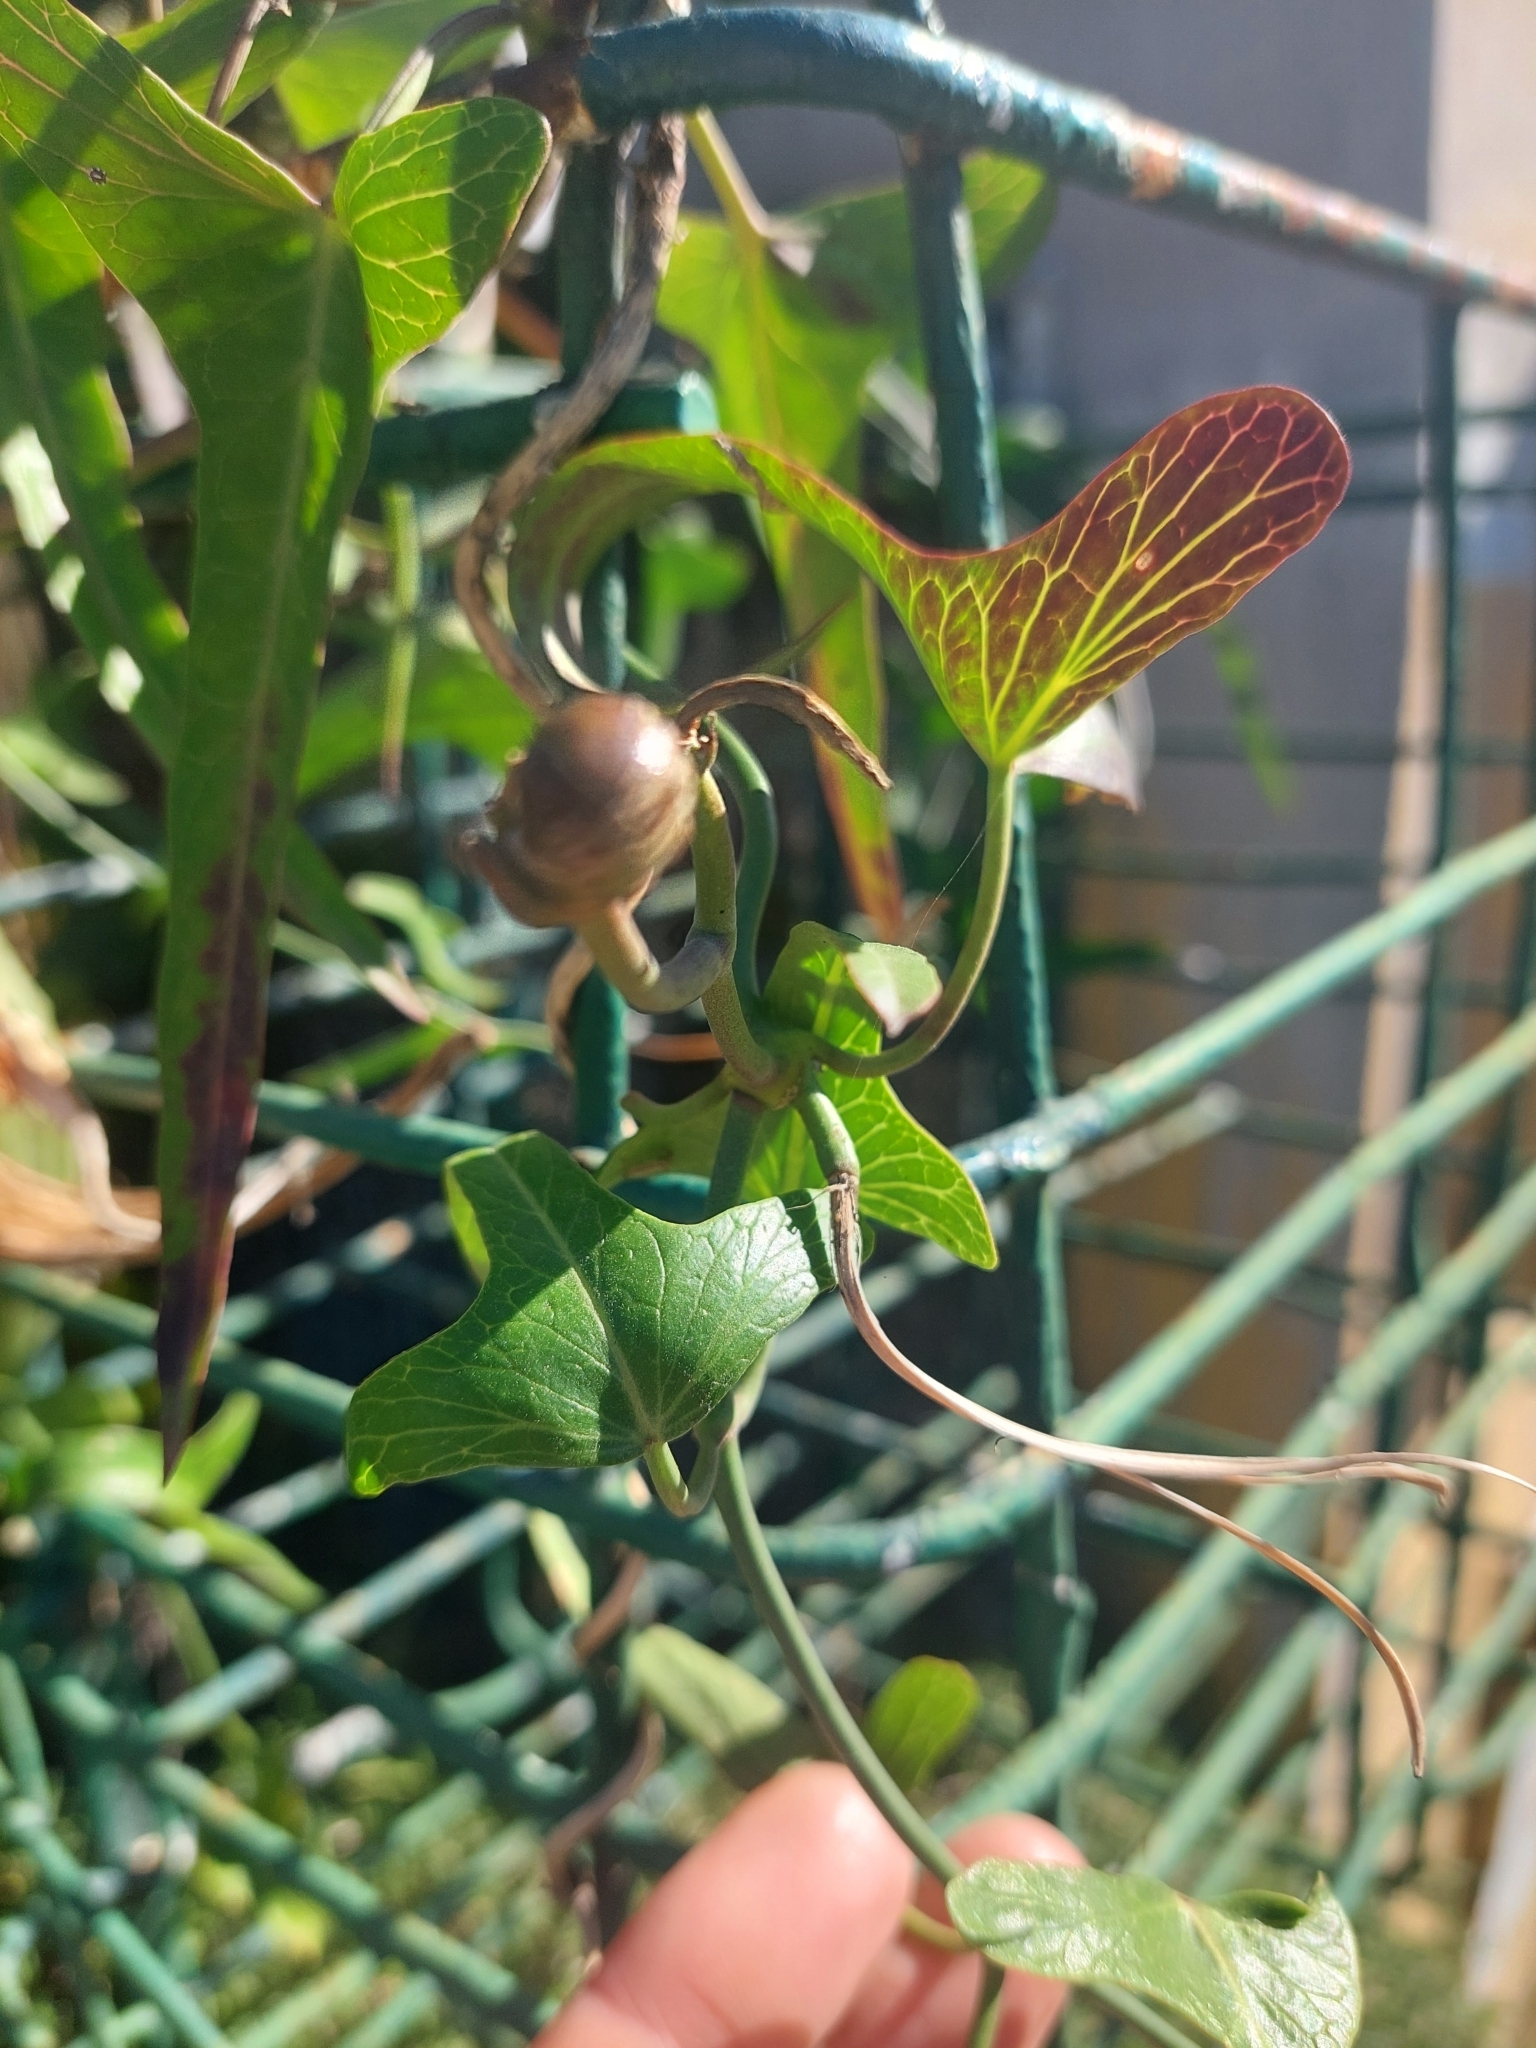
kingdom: Plantae
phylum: Tracheophyta
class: Magnoliopsida
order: Gentianales
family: Apocynaceae
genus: Araujia
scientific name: Araujia angustifolia
